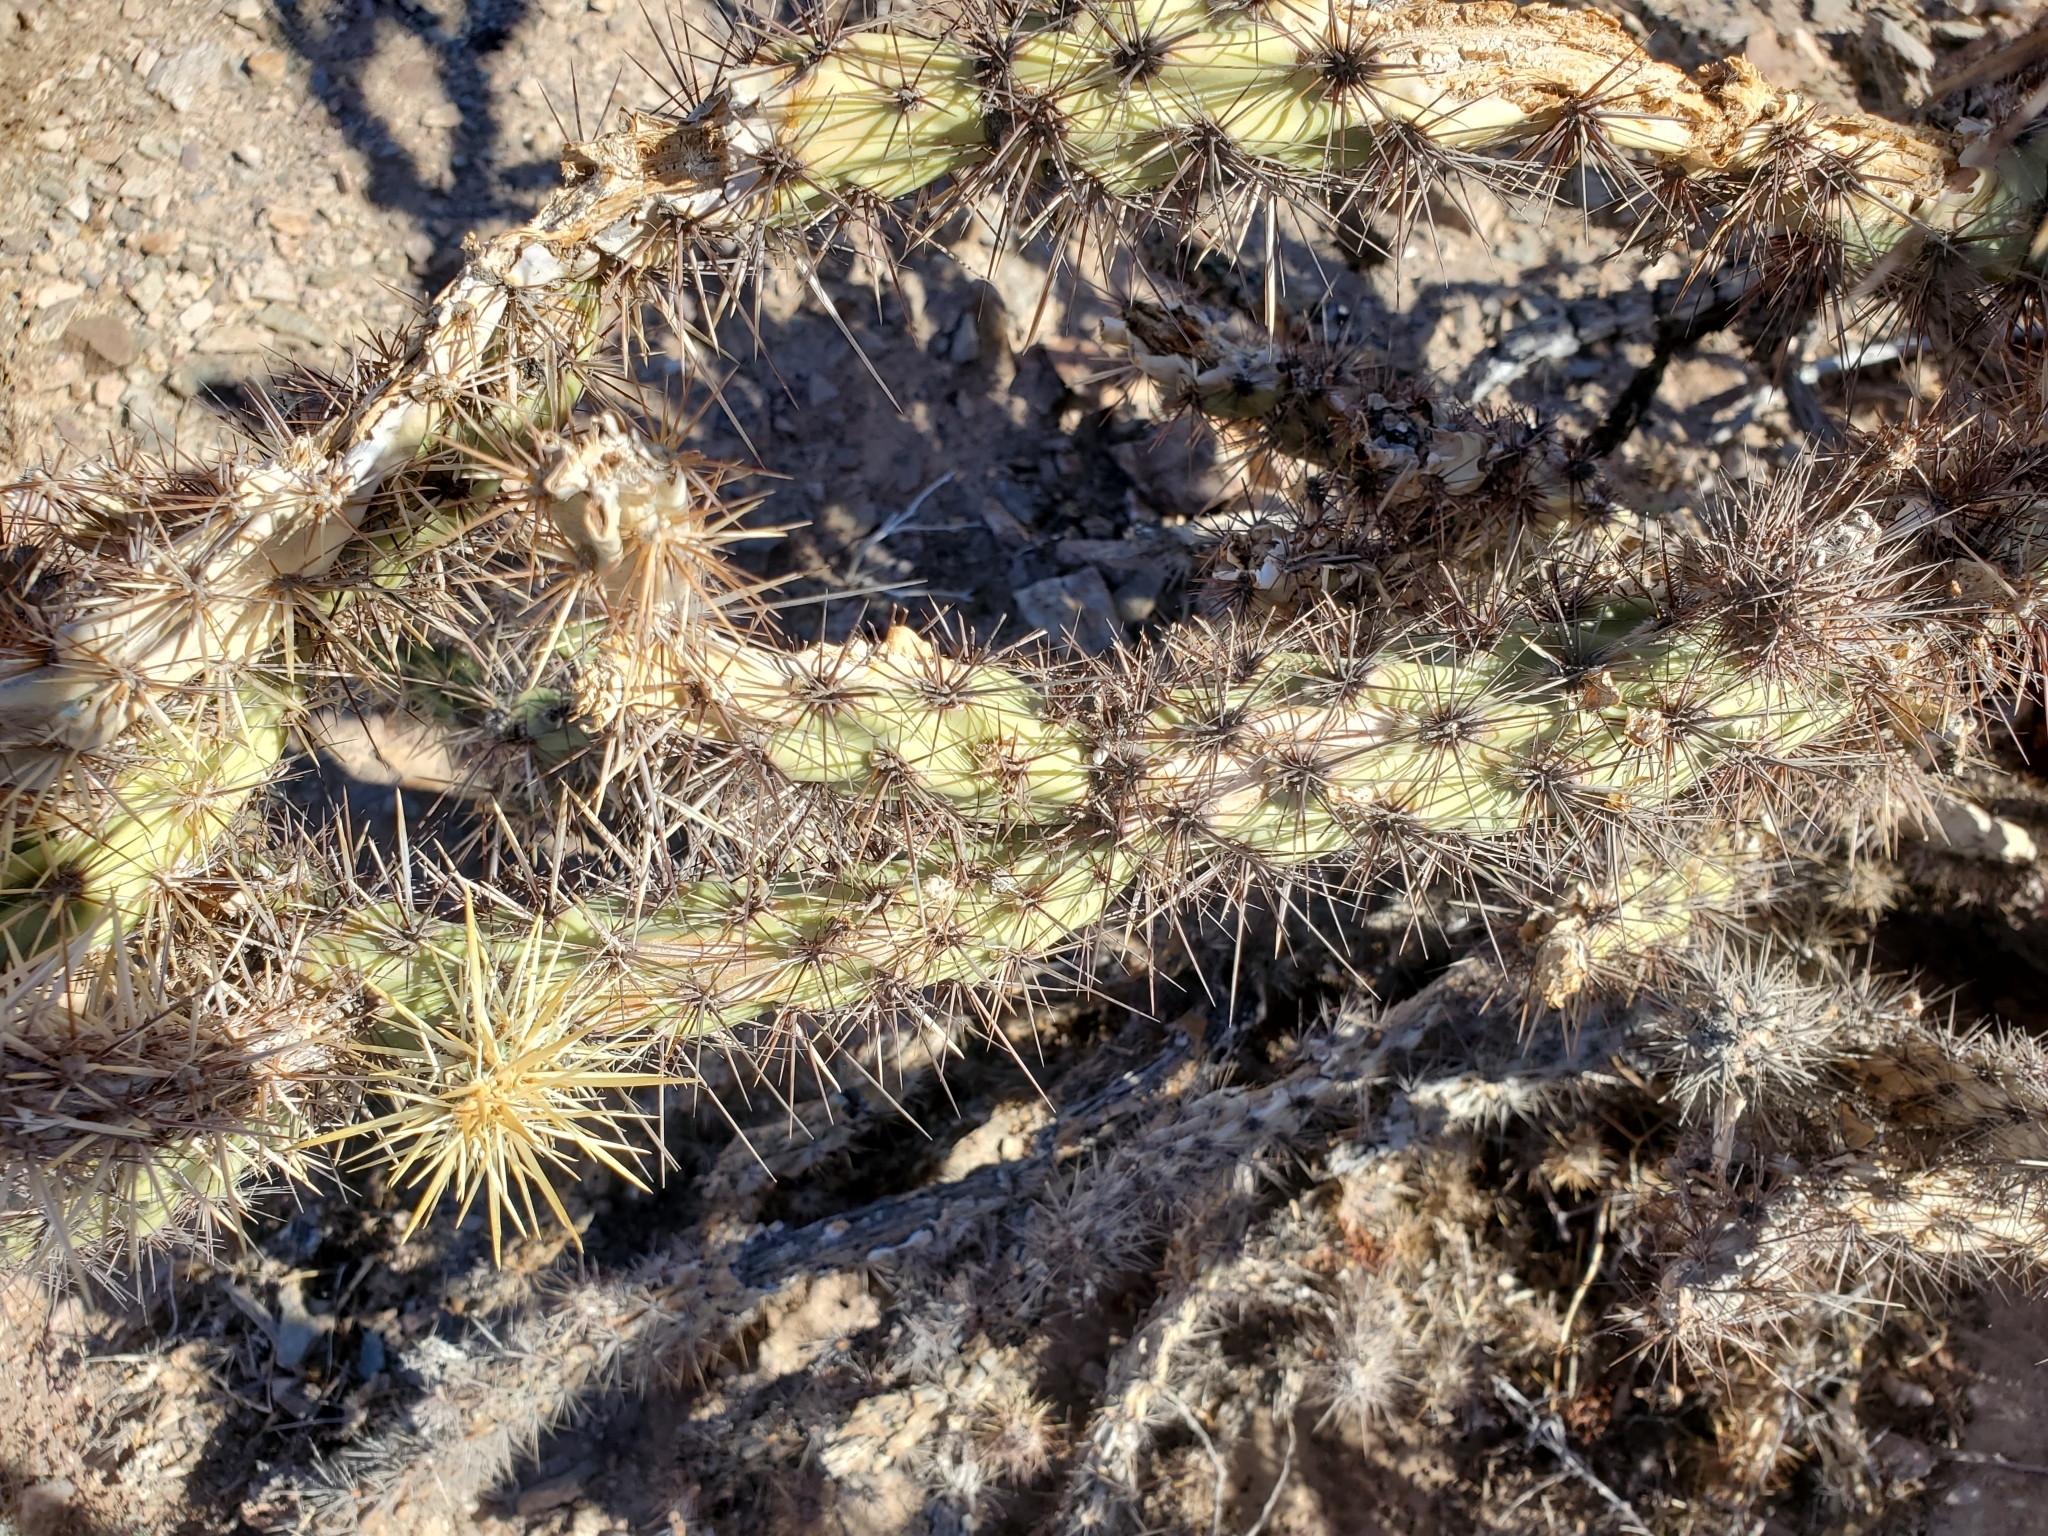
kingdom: Plantae
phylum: Tracheophyta
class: Magnoliopsida
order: Caryophyllales
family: Cactaceae
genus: Cylindropuntia
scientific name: Cylindropuntia acanthocarpa
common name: Buckhorn cholla
